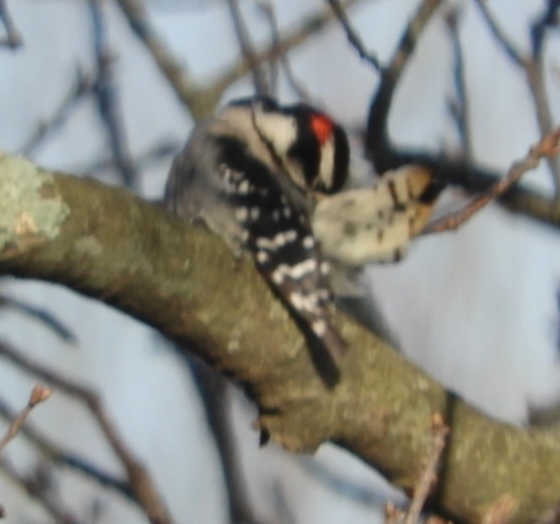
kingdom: Animalia
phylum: Chordata
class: Aves
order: Piciformes
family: Picidae
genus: Dryobates
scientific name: Dryobates pubescens
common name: Downy woodpecker
